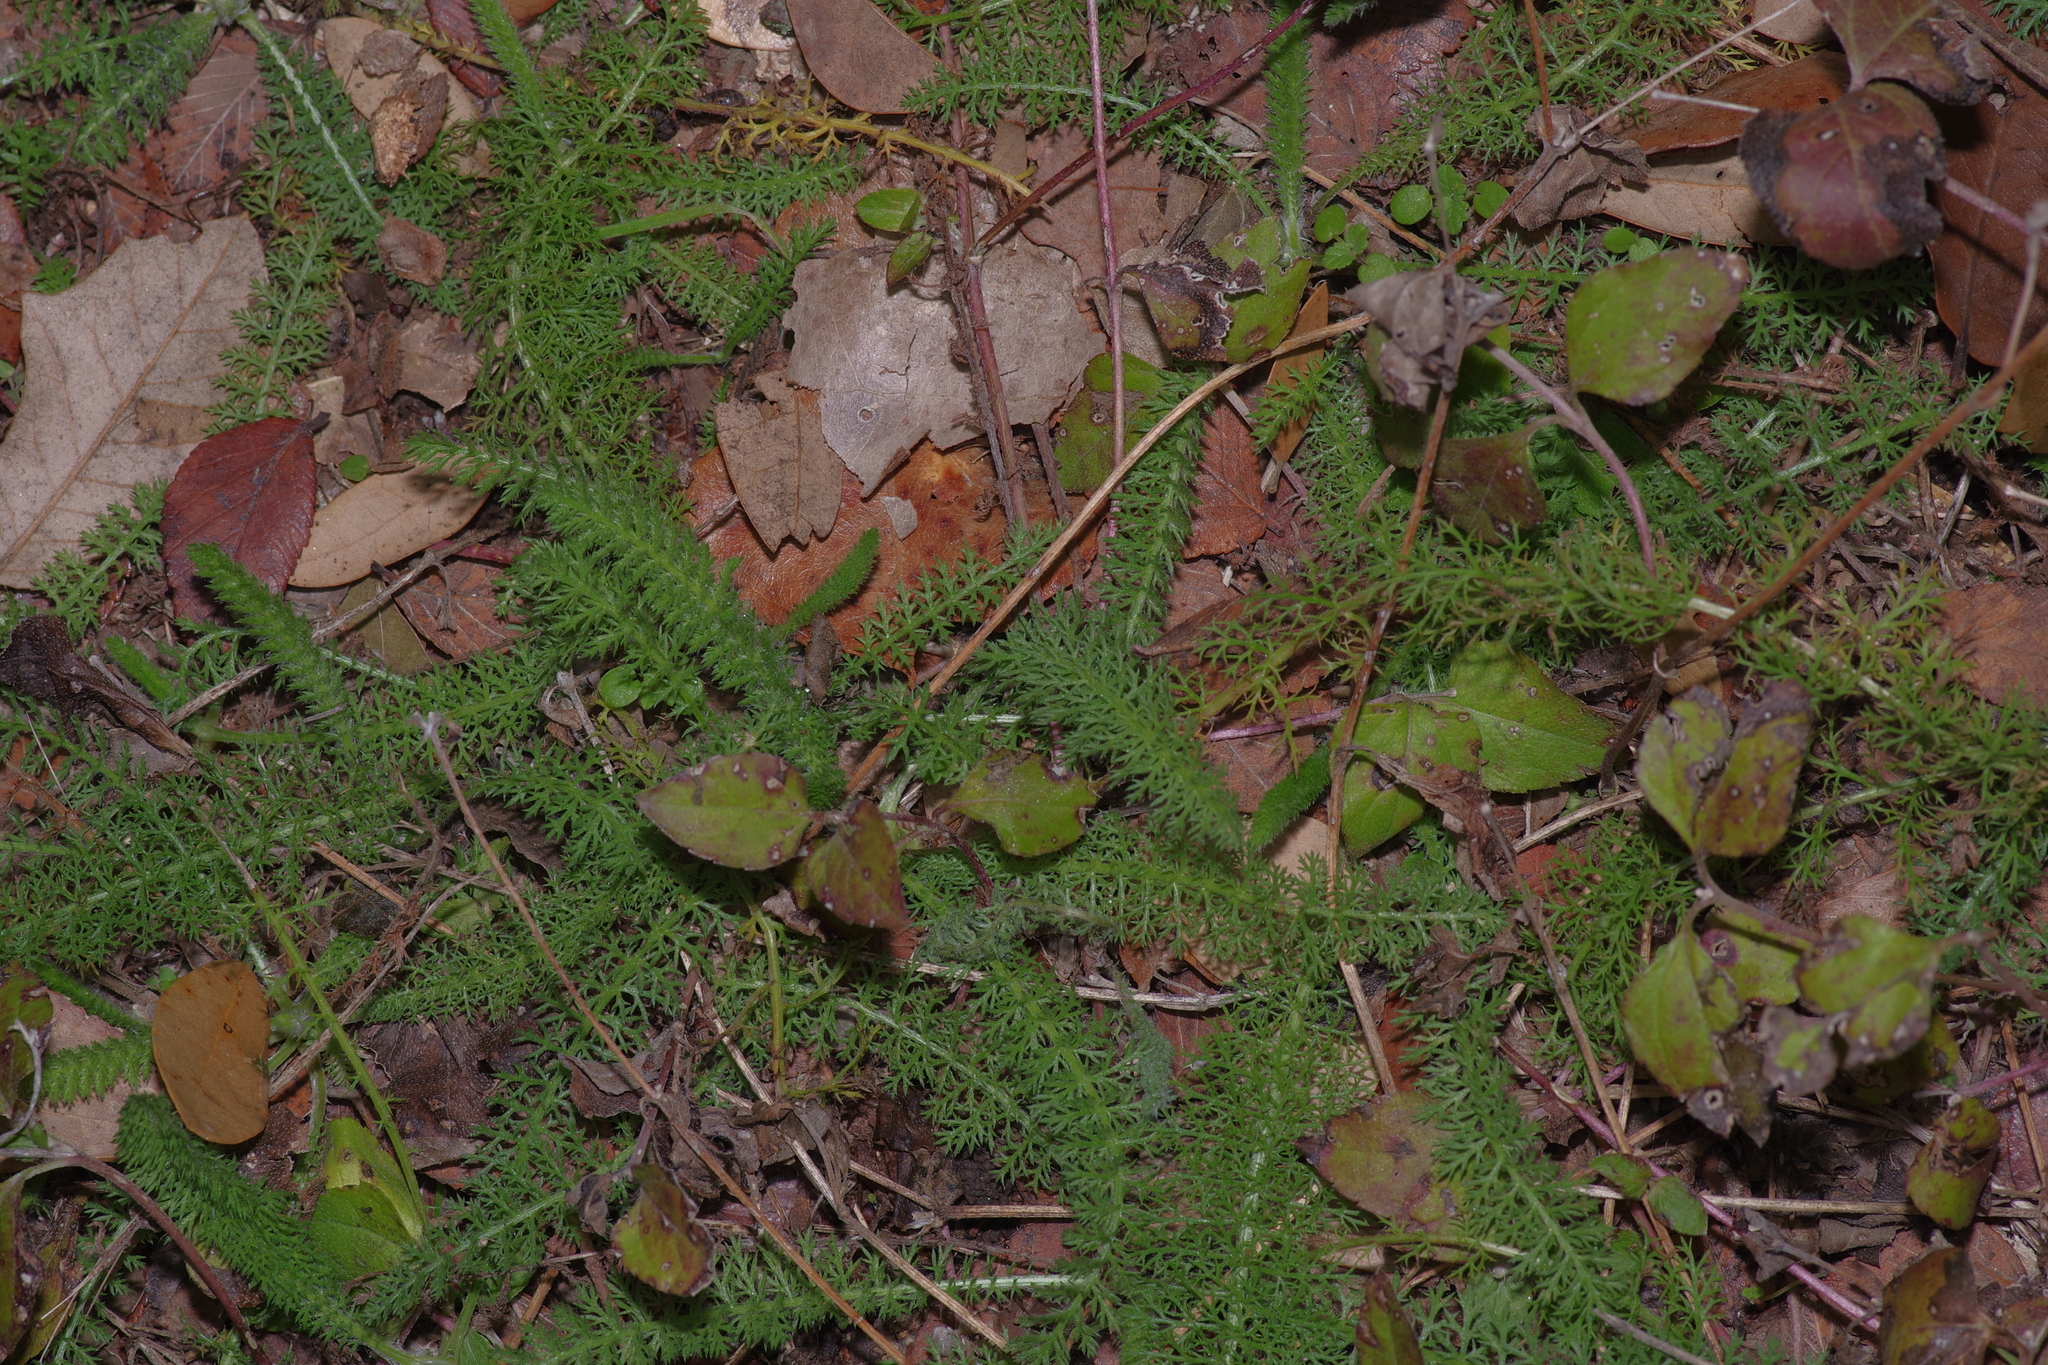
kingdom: Plantae
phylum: Tracheophyta
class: Magnoliopsida
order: Asterales
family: Asteraceae
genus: Achillea
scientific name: Achillea millefolium
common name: Yarrow
